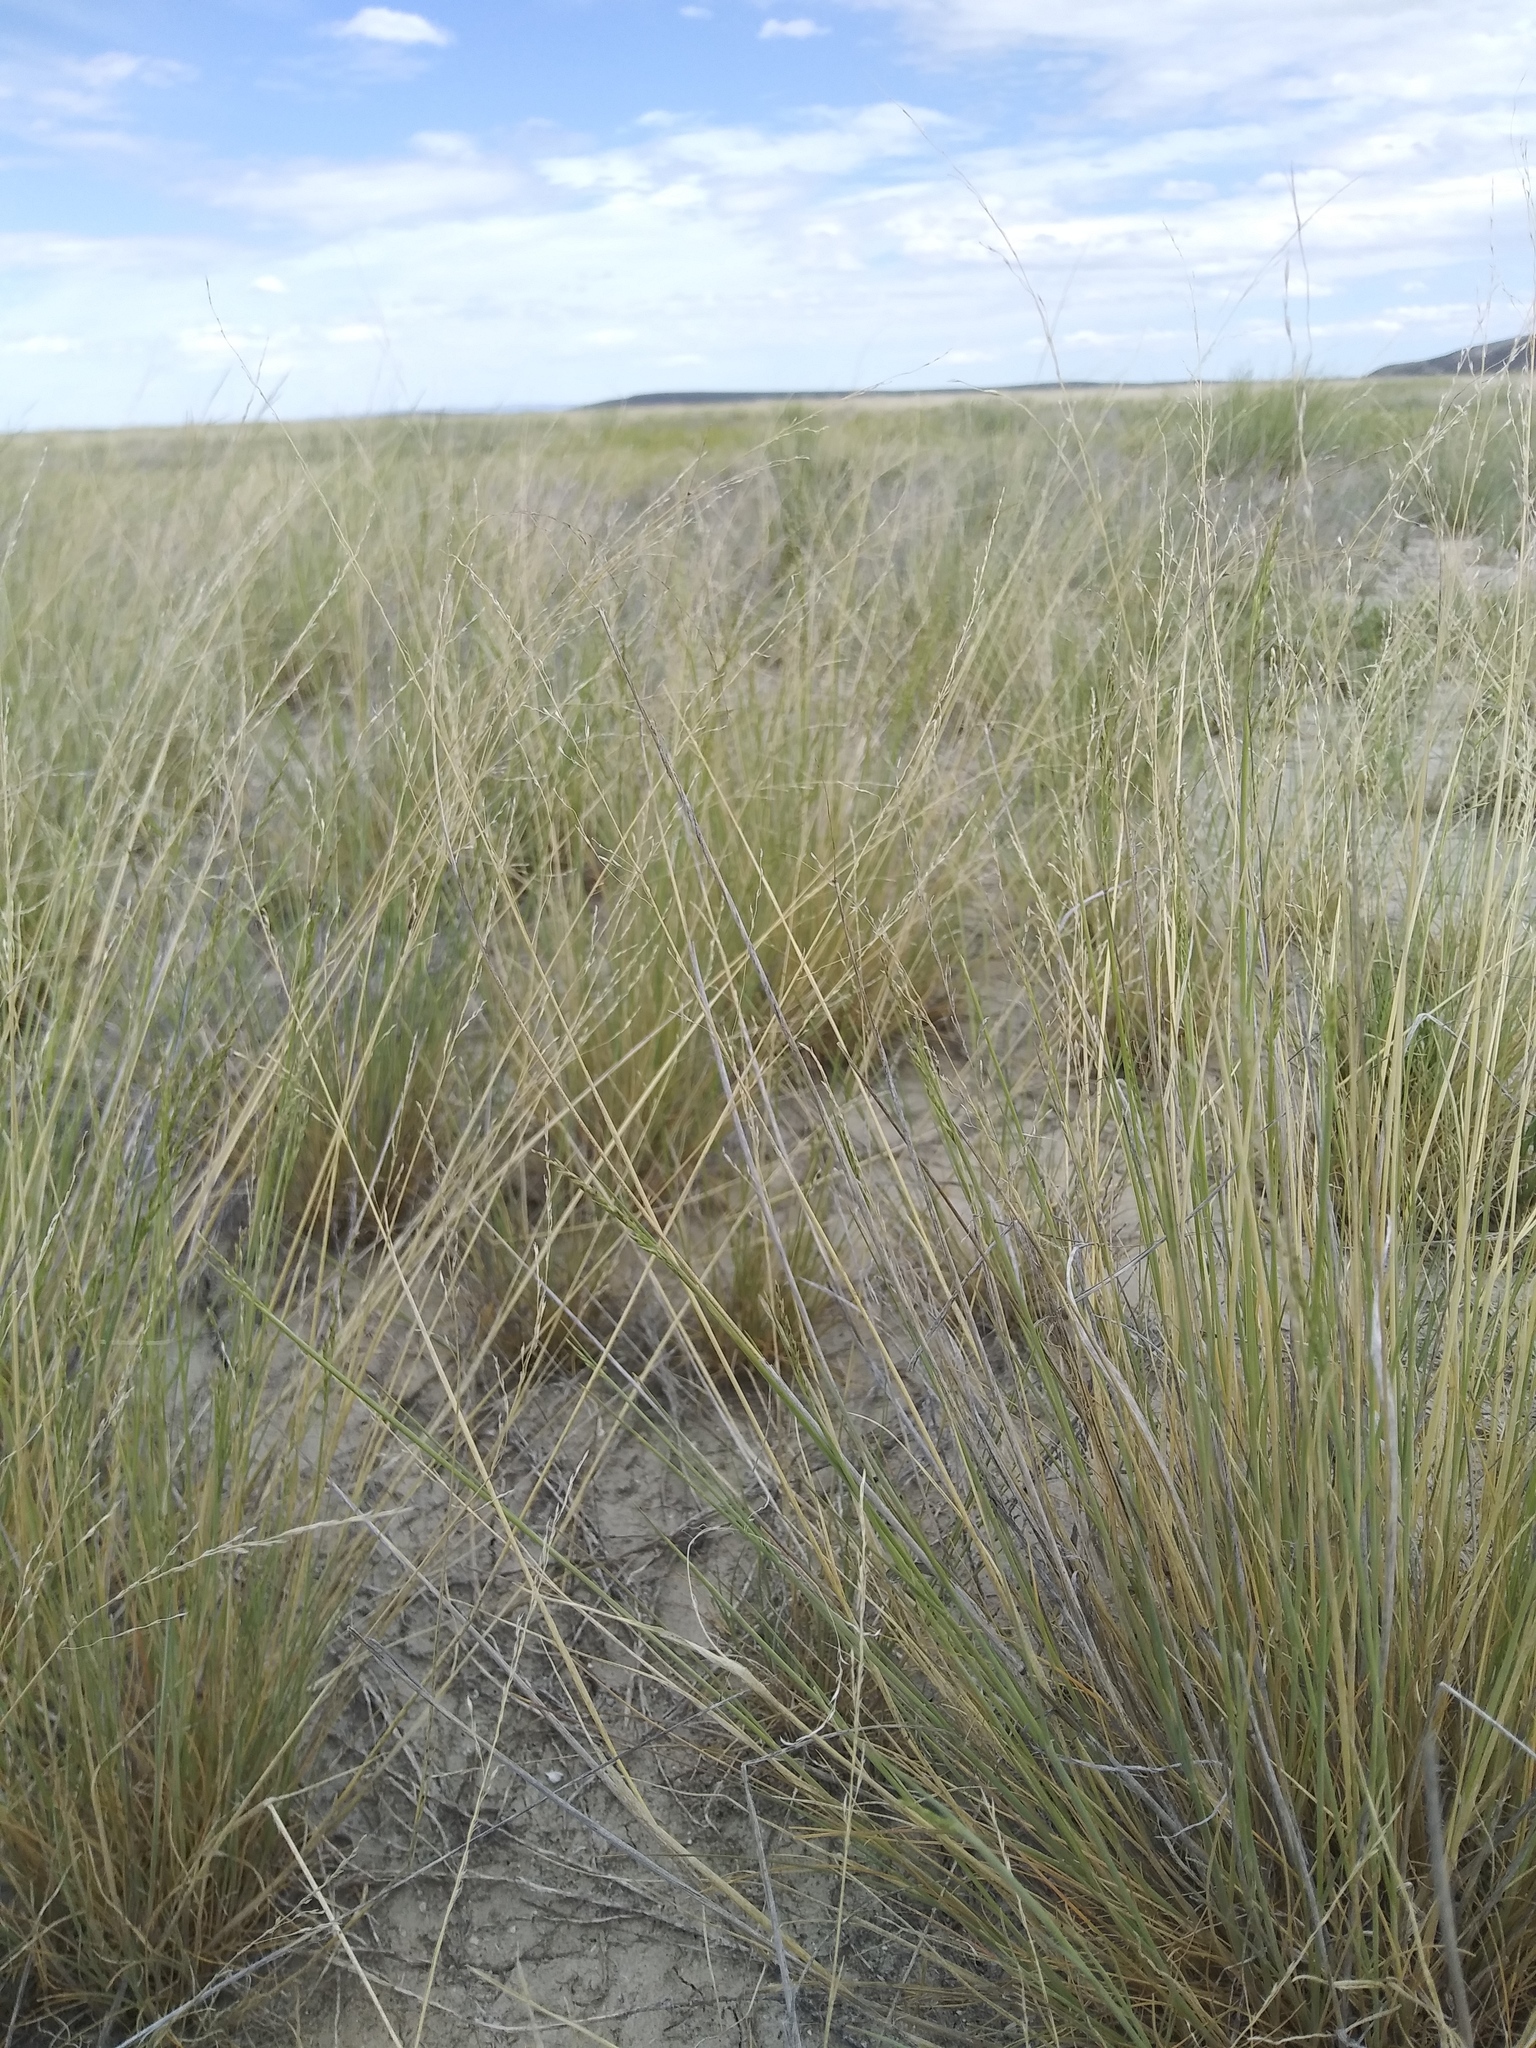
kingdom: Plantae
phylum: Tracheophyta
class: Liliopsida
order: Poales
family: Poaceae
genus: Puccinellia
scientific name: Puccinellia nuttalliana
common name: Nuttall's alkali grass
